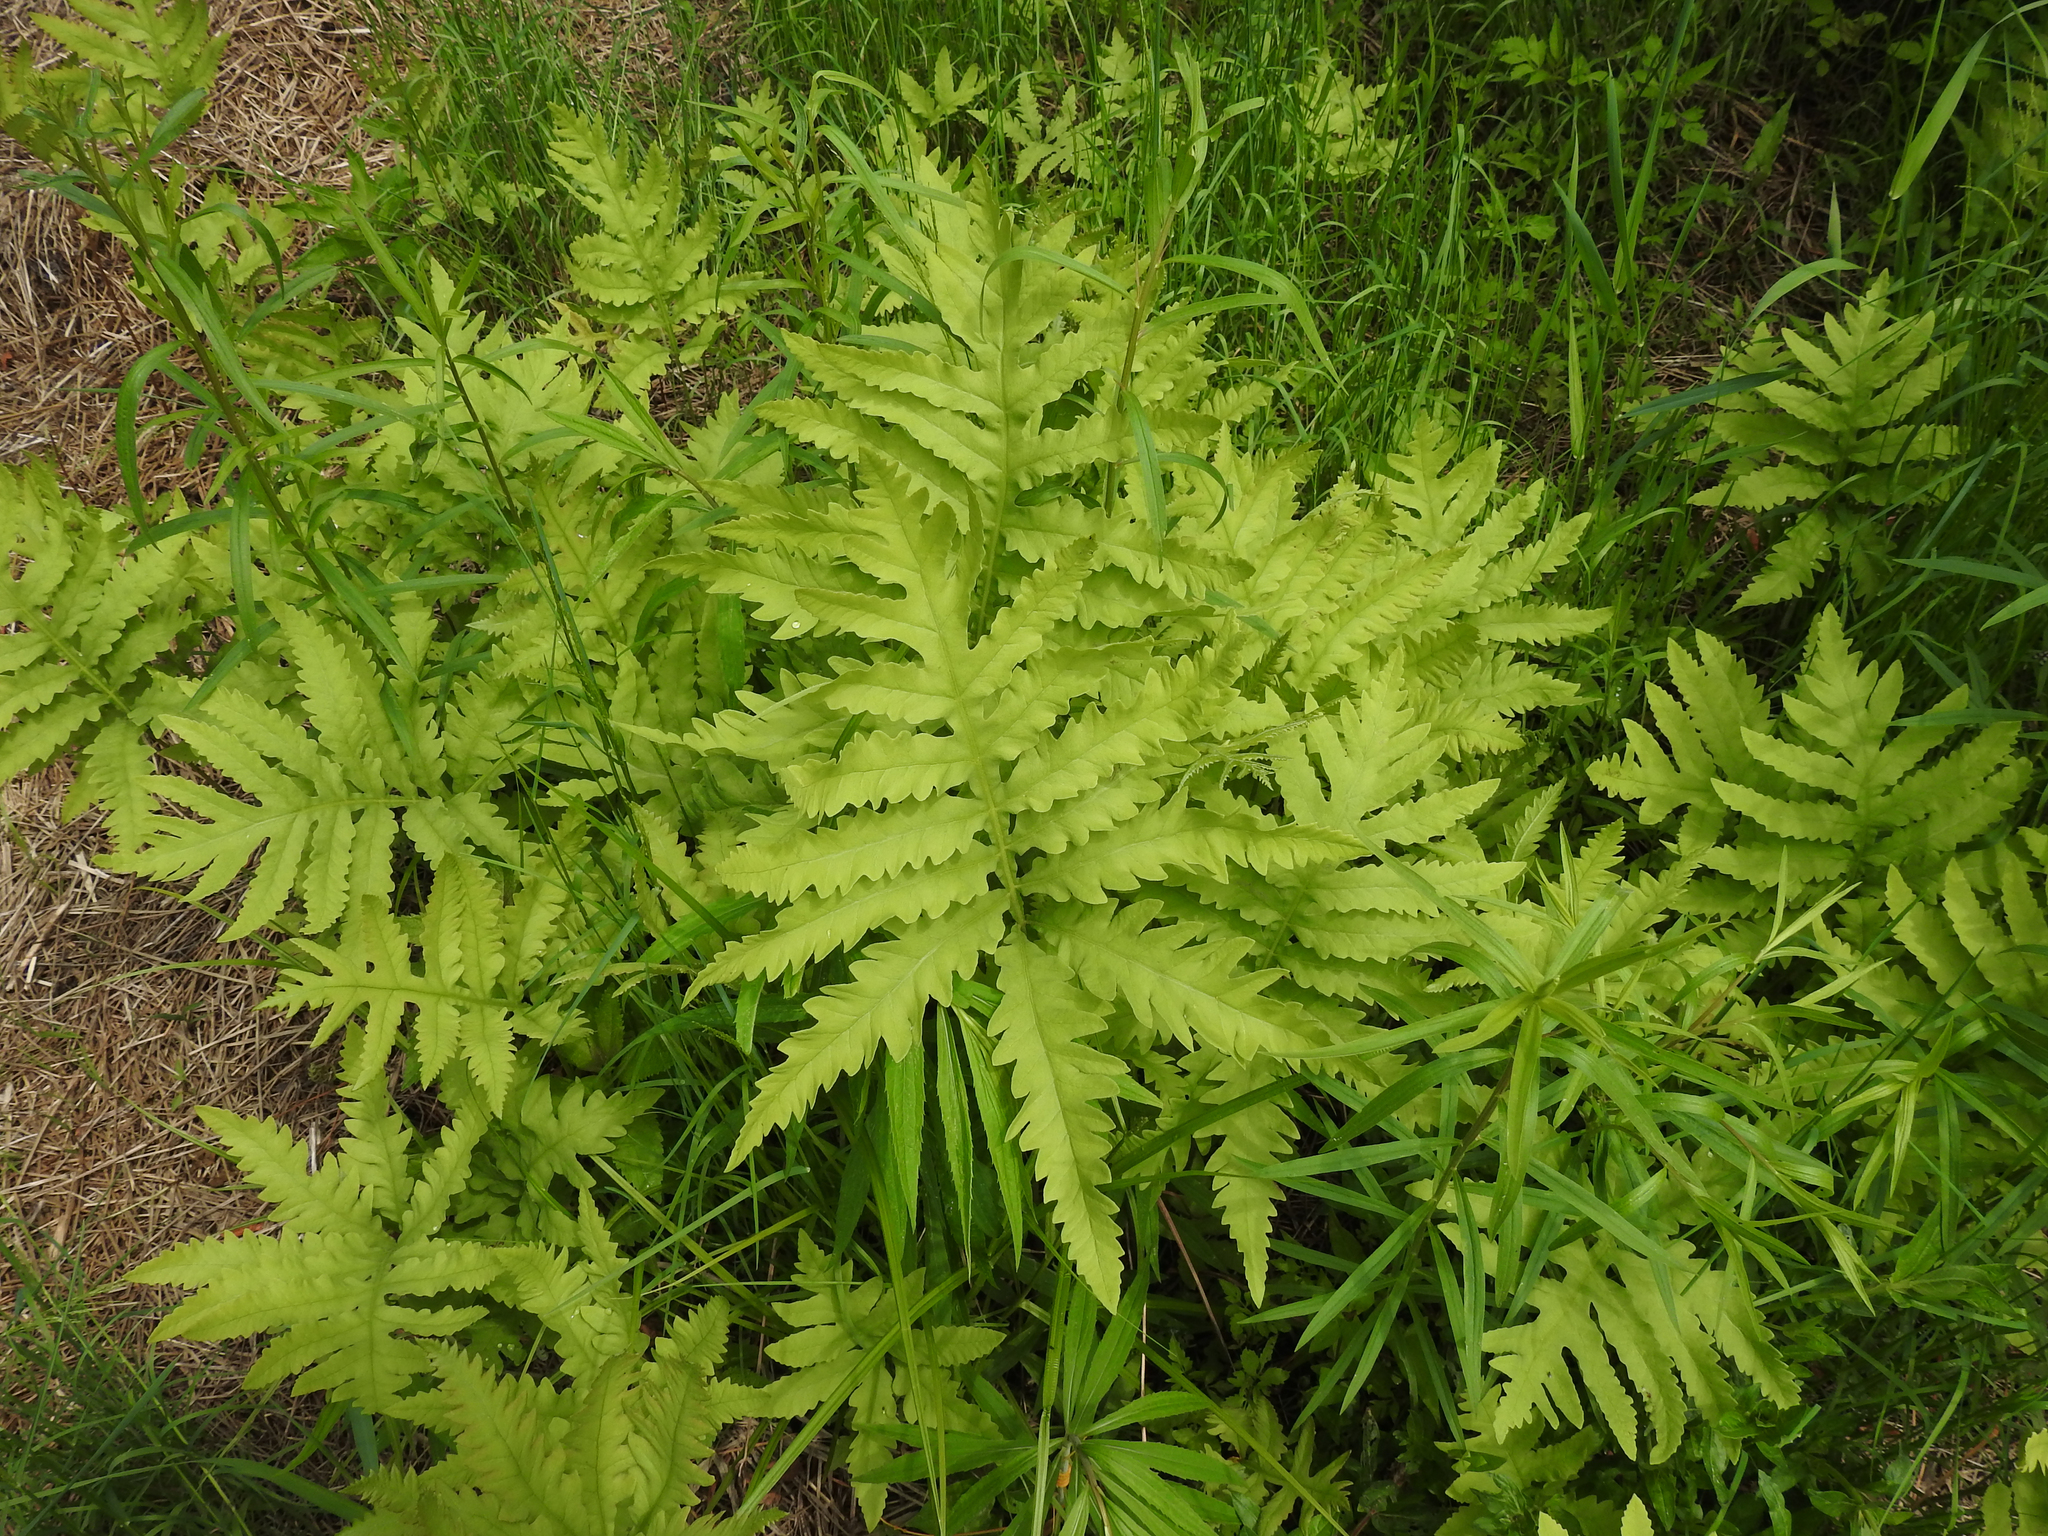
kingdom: Plantae
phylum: Tracheophyta
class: Polypodiopsida
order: Polypodiales
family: Onocleaceae
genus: Onoclea
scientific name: Onoclea sensibilis
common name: Sensitive fern
